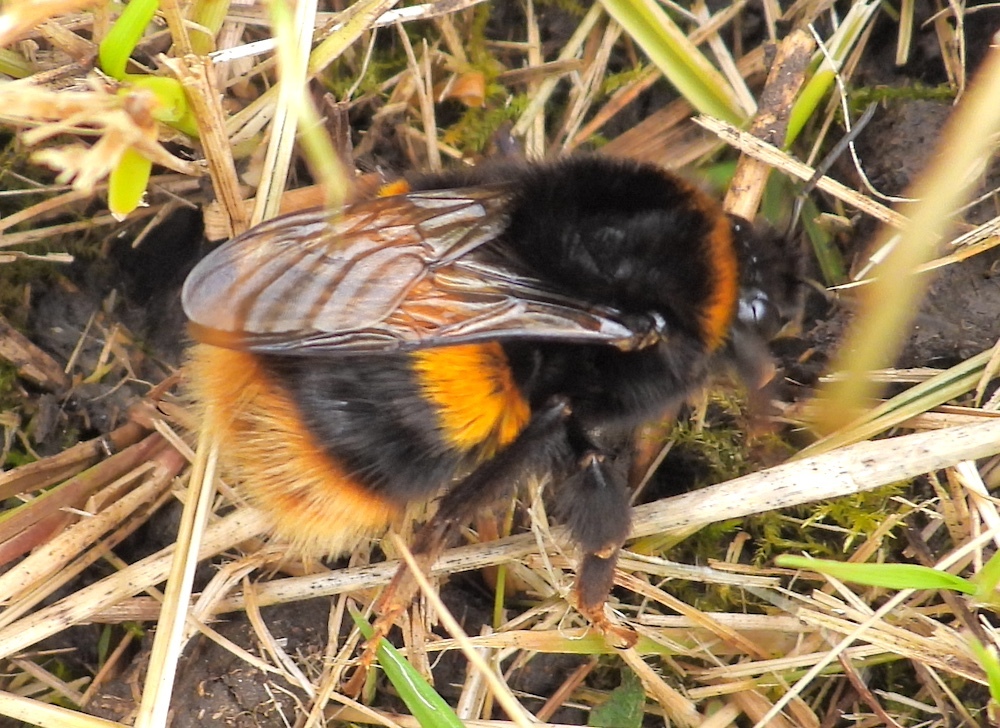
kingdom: Animalia
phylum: Arthropoda
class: Insecta
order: Hymenoptera
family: Apidae
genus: Bombus
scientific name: Bombus terrestris
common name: Buff-tailed bumblebee
